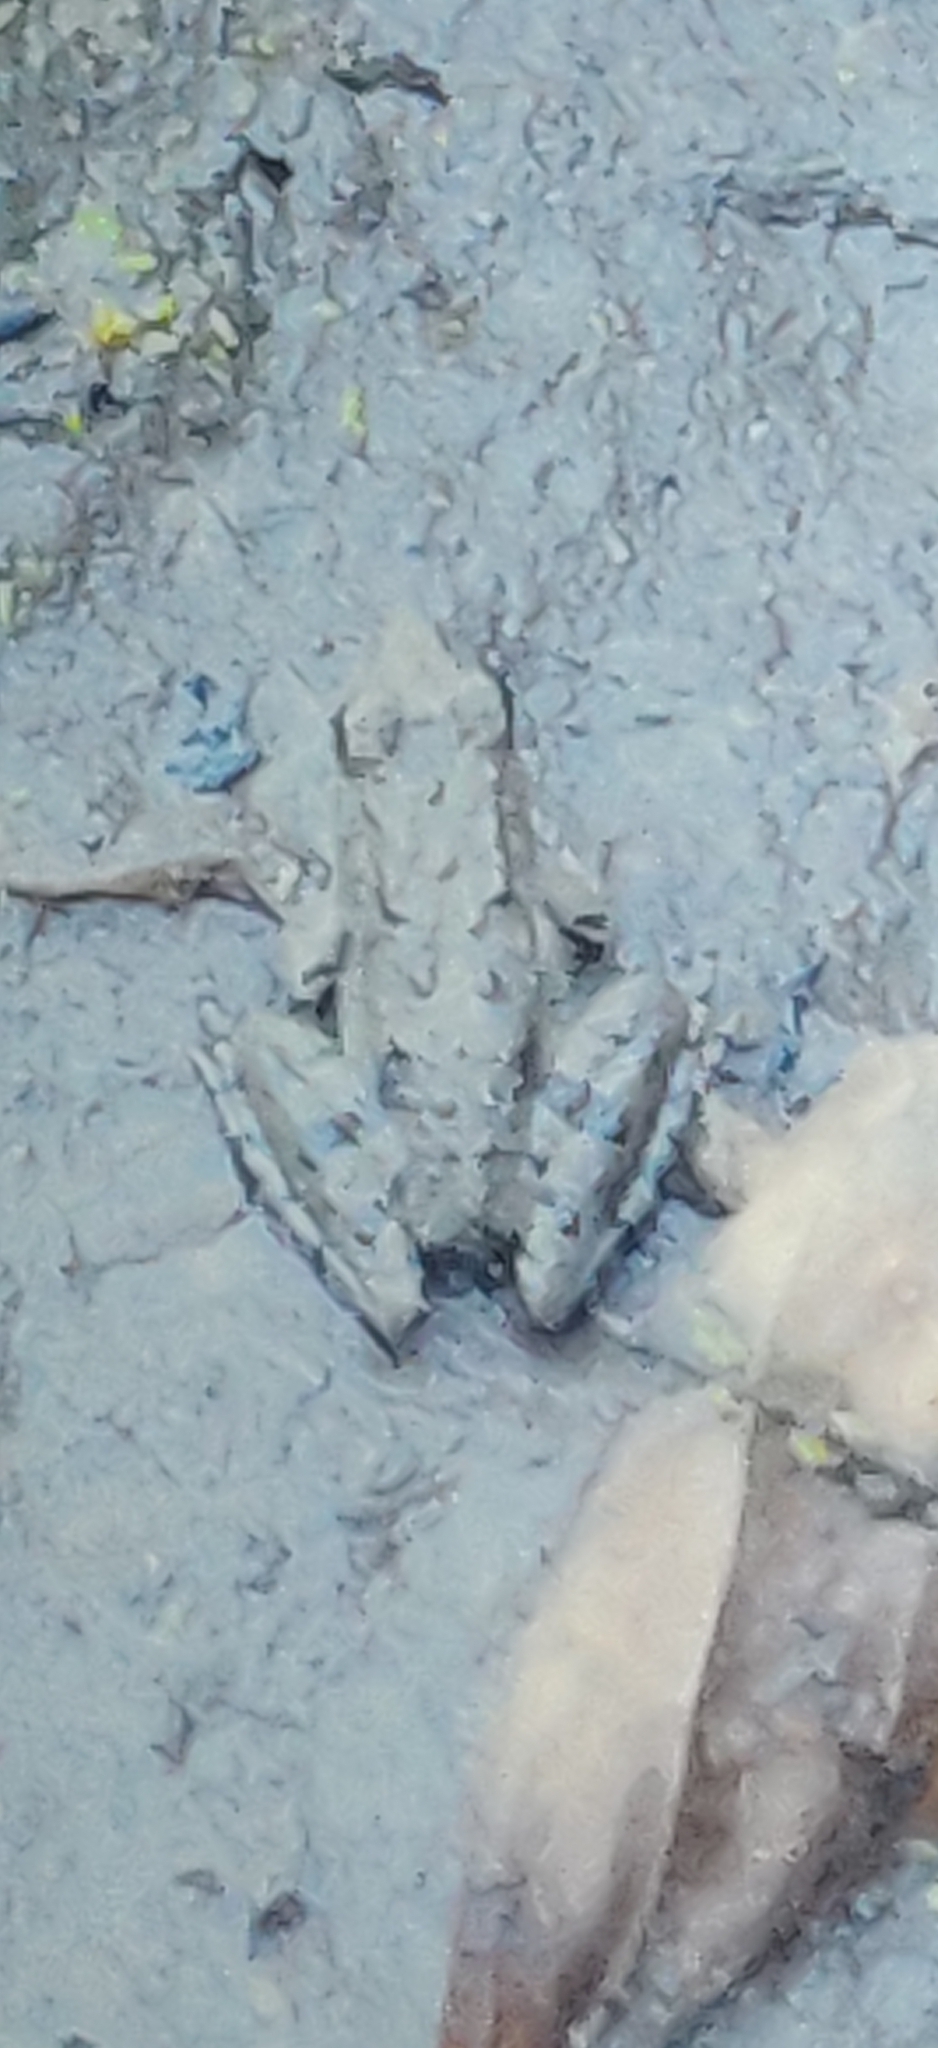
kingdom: Animalia
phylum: Chordata
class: Amphibia
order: Anura
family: Hylidae
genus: Acris
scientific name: Acris blanchardi
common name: Blanchard's cricket frog
